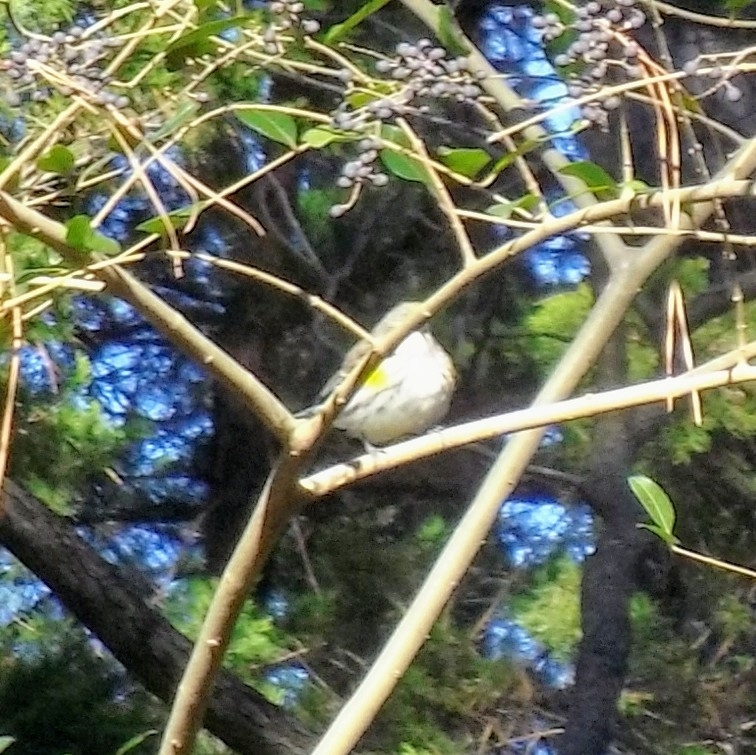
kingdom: Animalia
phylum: Chordata
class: Aves
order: Passeriformes
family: Parulidae
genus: Setophaga
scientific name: Setophaga coronata
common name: Myrtle warbler
